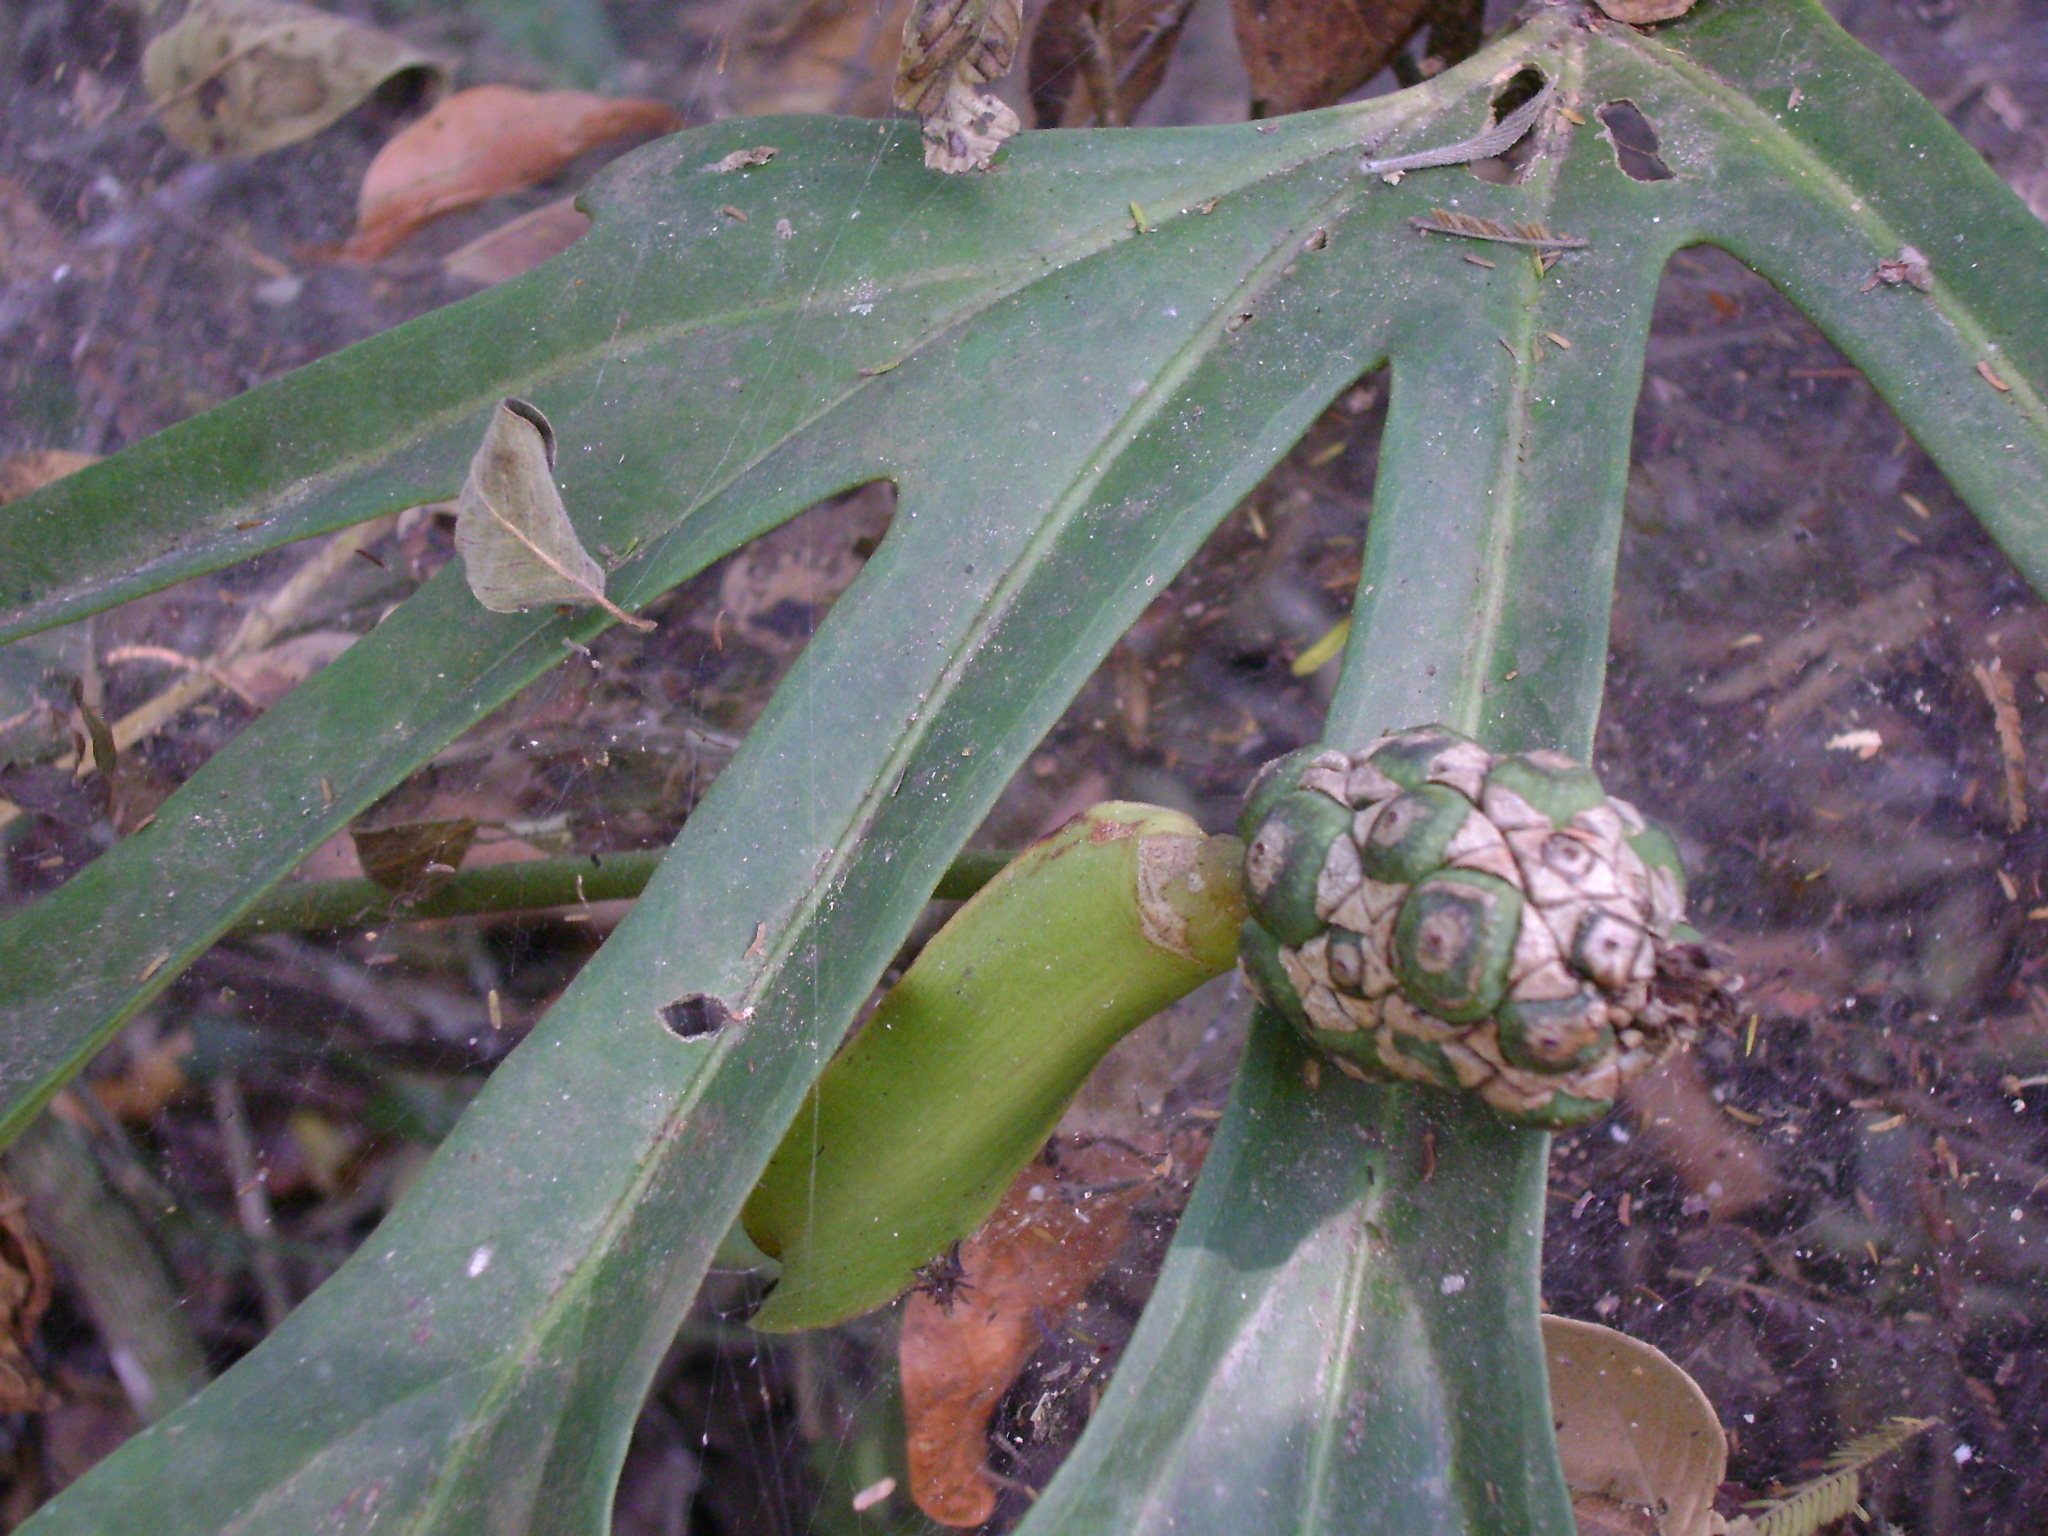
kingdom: Plantae
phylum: Tracheophyta
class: Liliopsida
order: Alismatales
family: Araceae
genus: Anthurium
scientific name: Anthurium podophyllum
